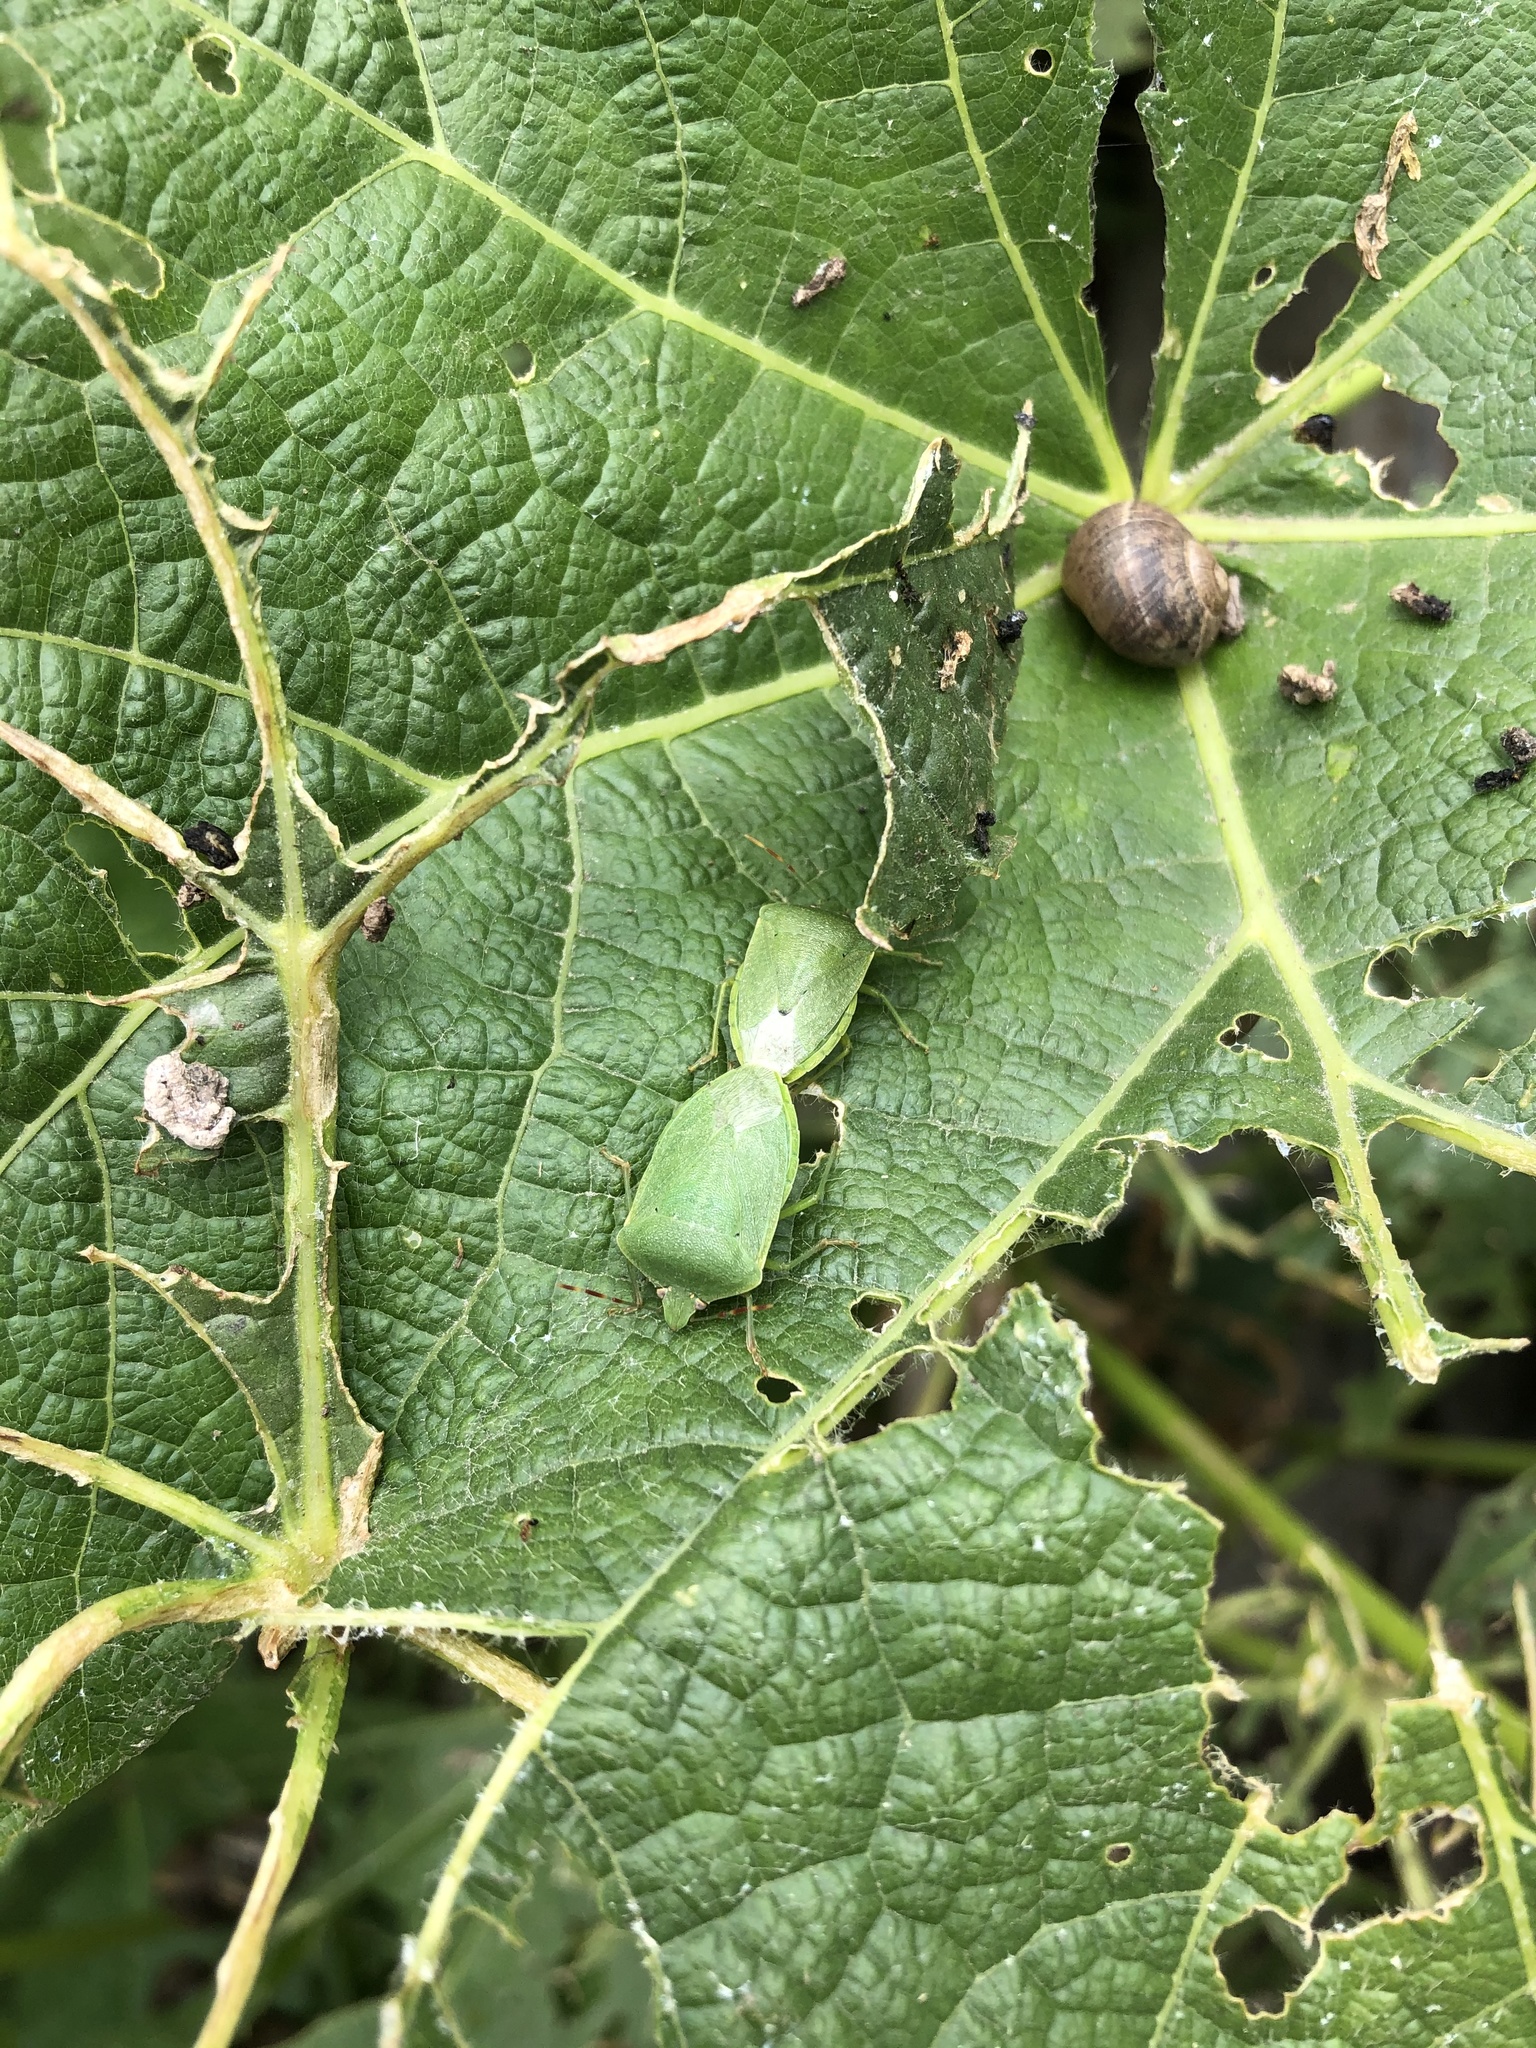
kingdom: Animalia
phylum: Arthropoda
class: Insecta
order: Hemiptera
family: Pentatomidae
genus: Nezara
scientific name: Nezara viridula
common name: Southern green stink bug
